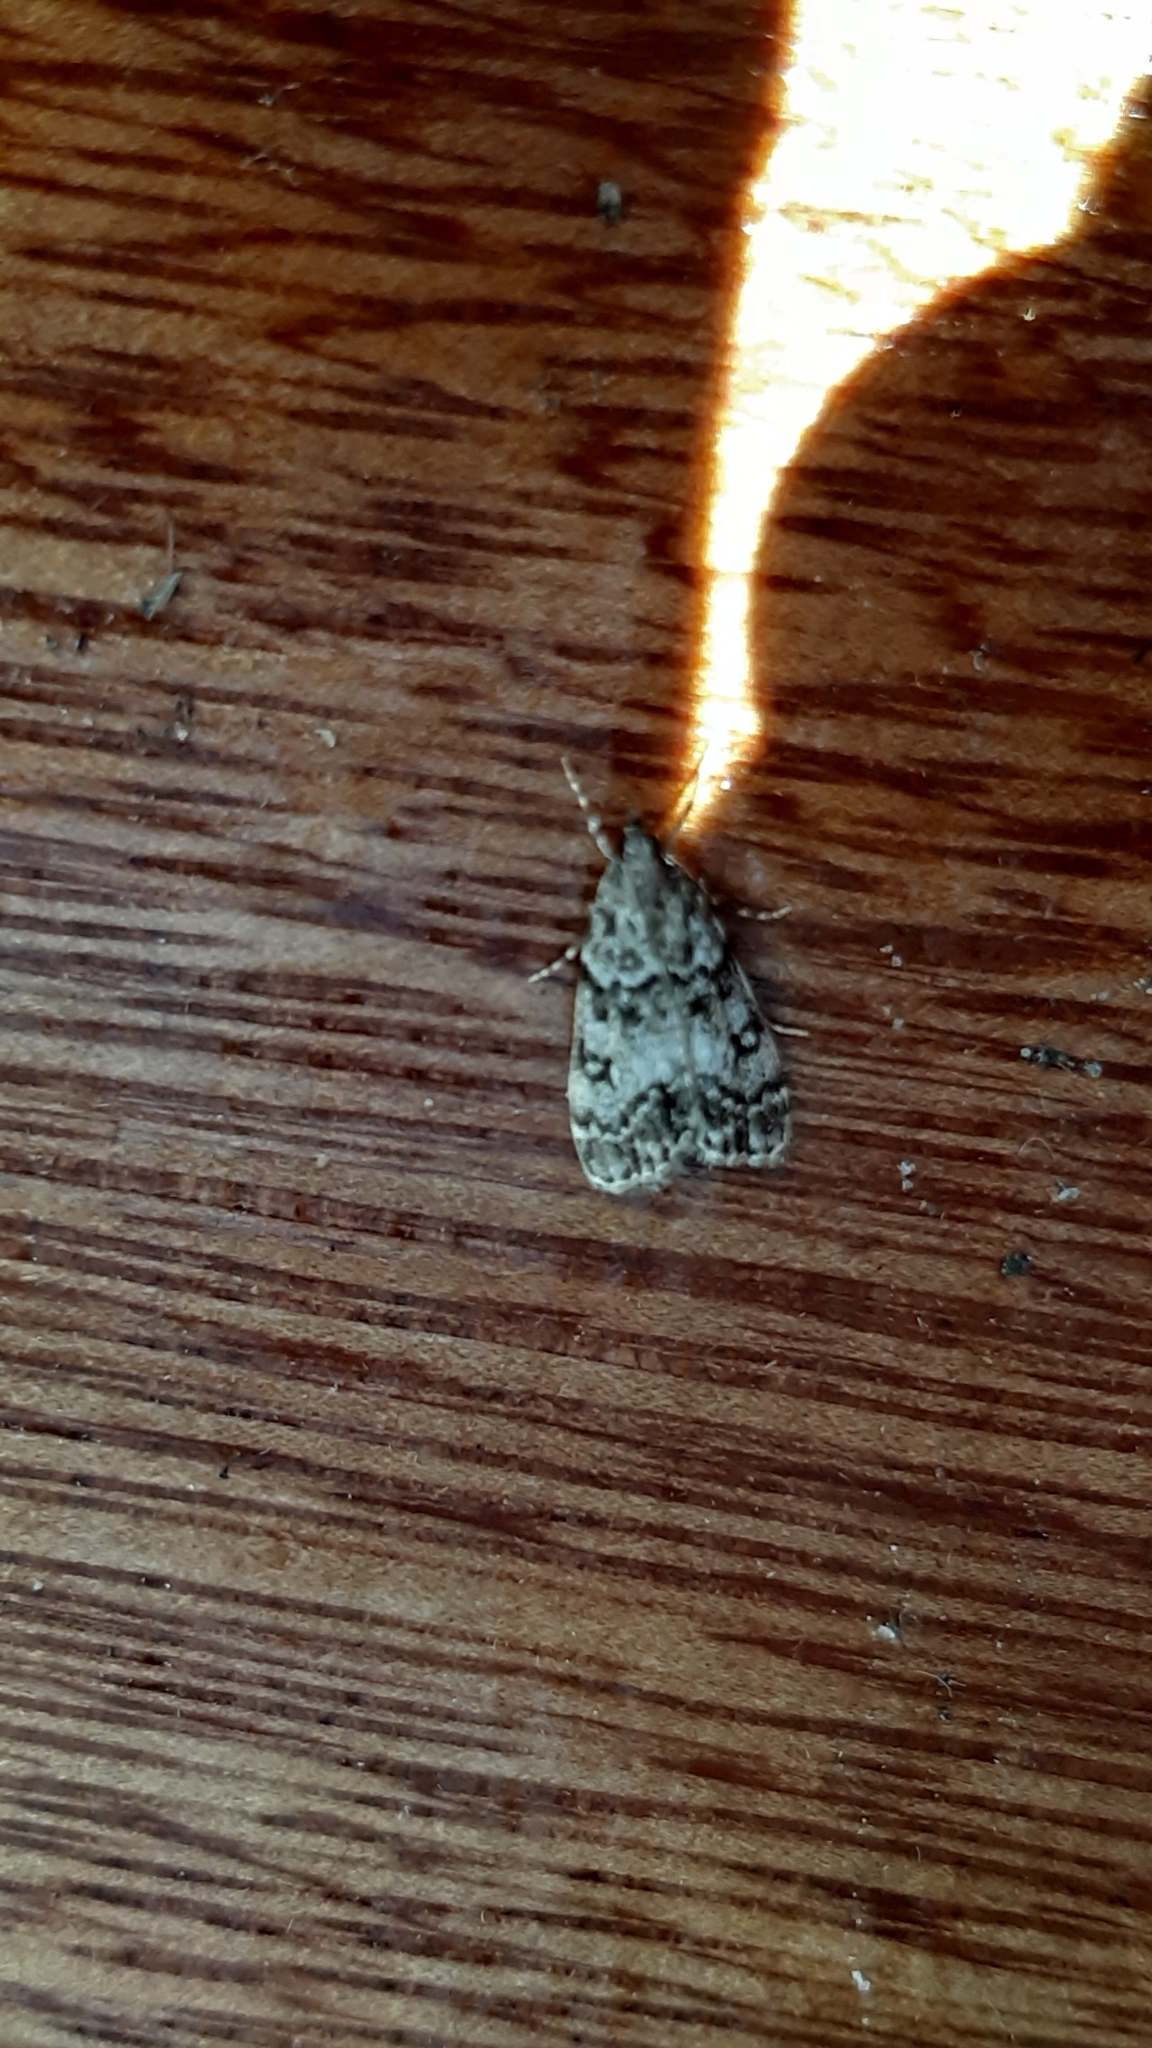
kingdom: Animalia
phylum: Arthropoda
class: Insecta
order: Lepidoptera
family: Crambidae
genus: Eudonia
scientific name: Eudonia lacustrata
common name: Little grey
